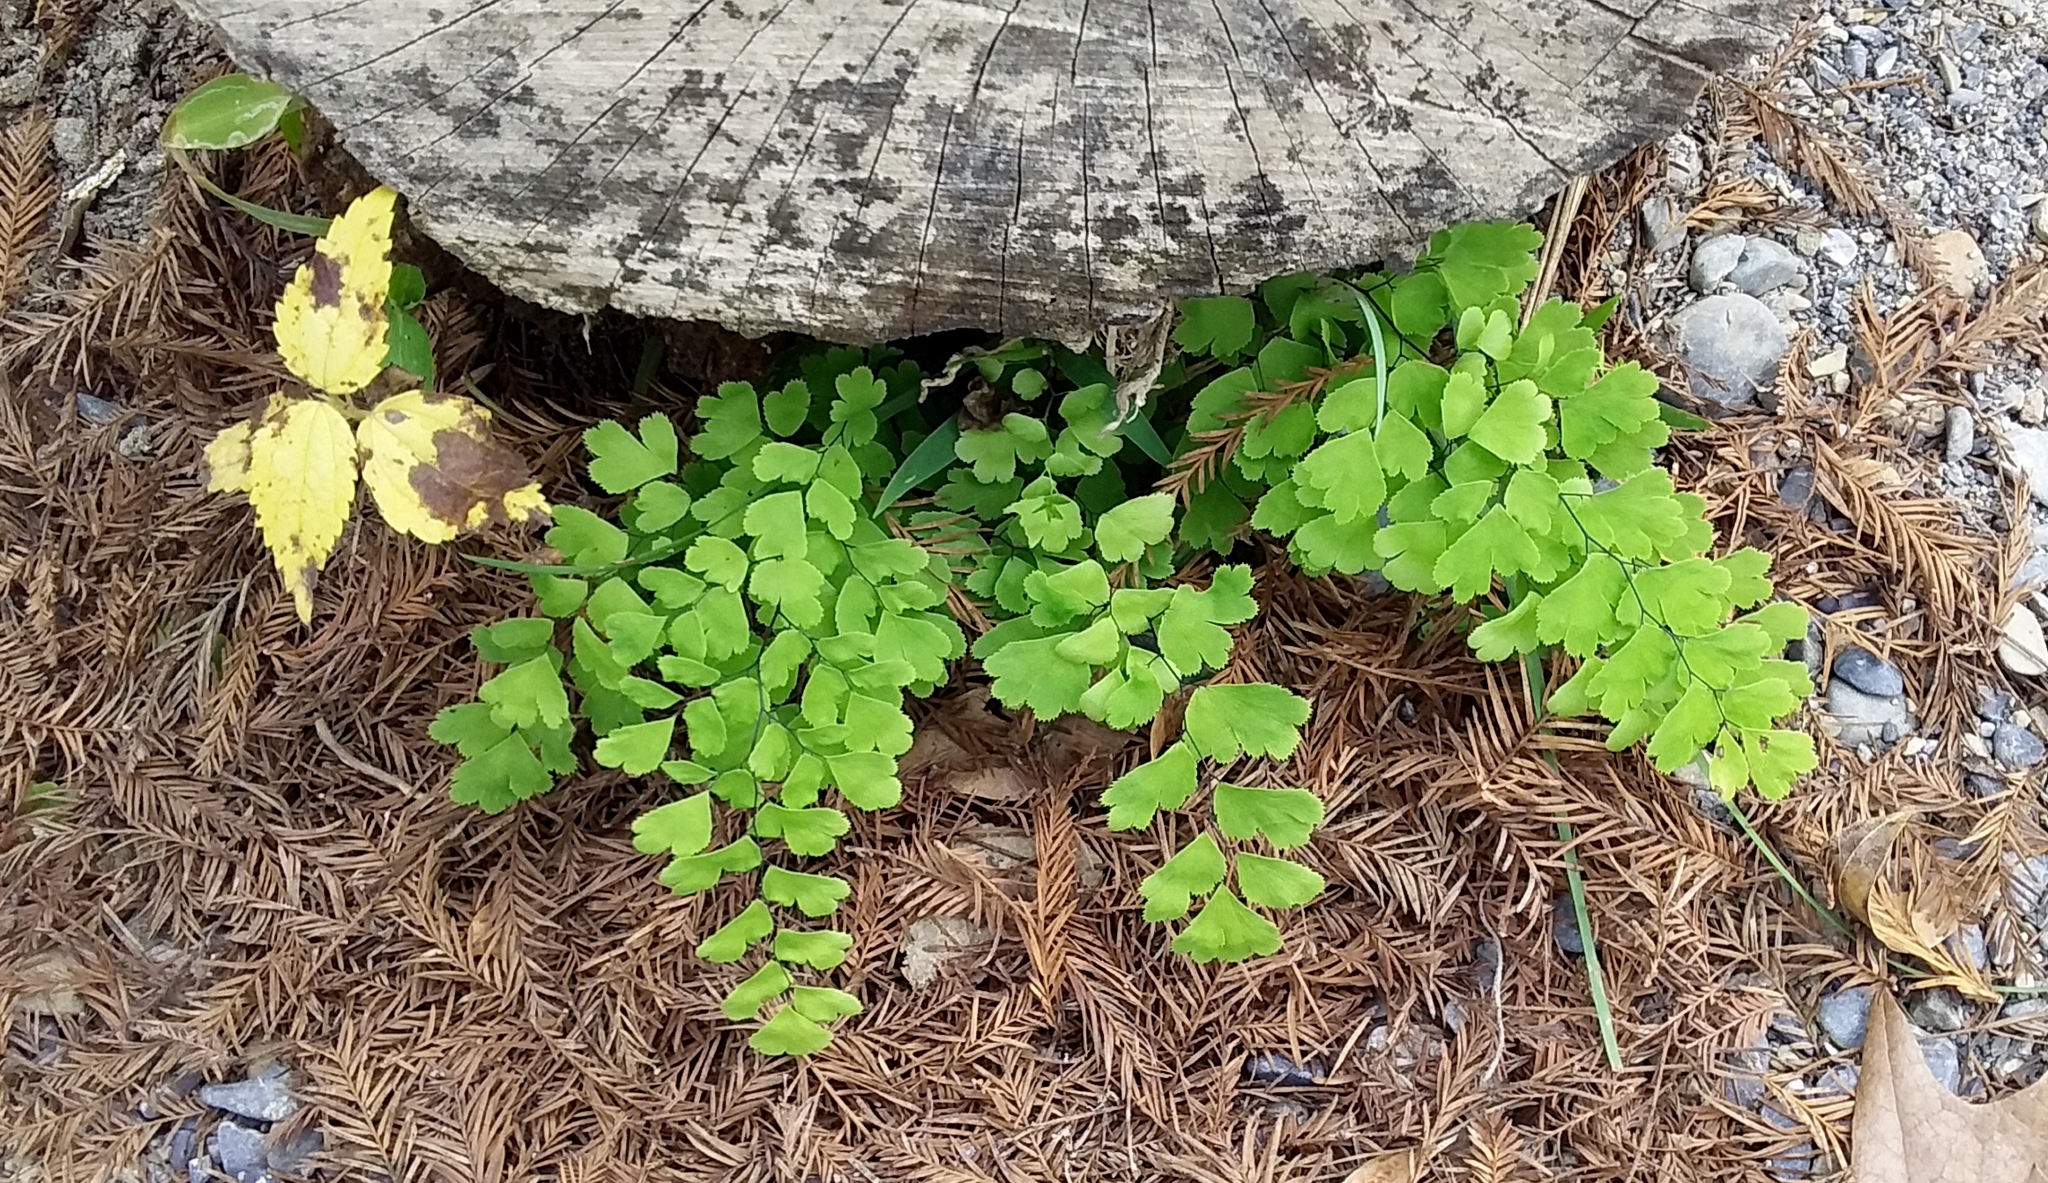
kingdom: Plantae
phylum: Tracheophyta
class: Polypodiopsida
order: Polypodiales
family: Pteridaceae
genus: Adiantum
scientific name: Adiantum capillus-veneris
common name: Maidenhair fern
